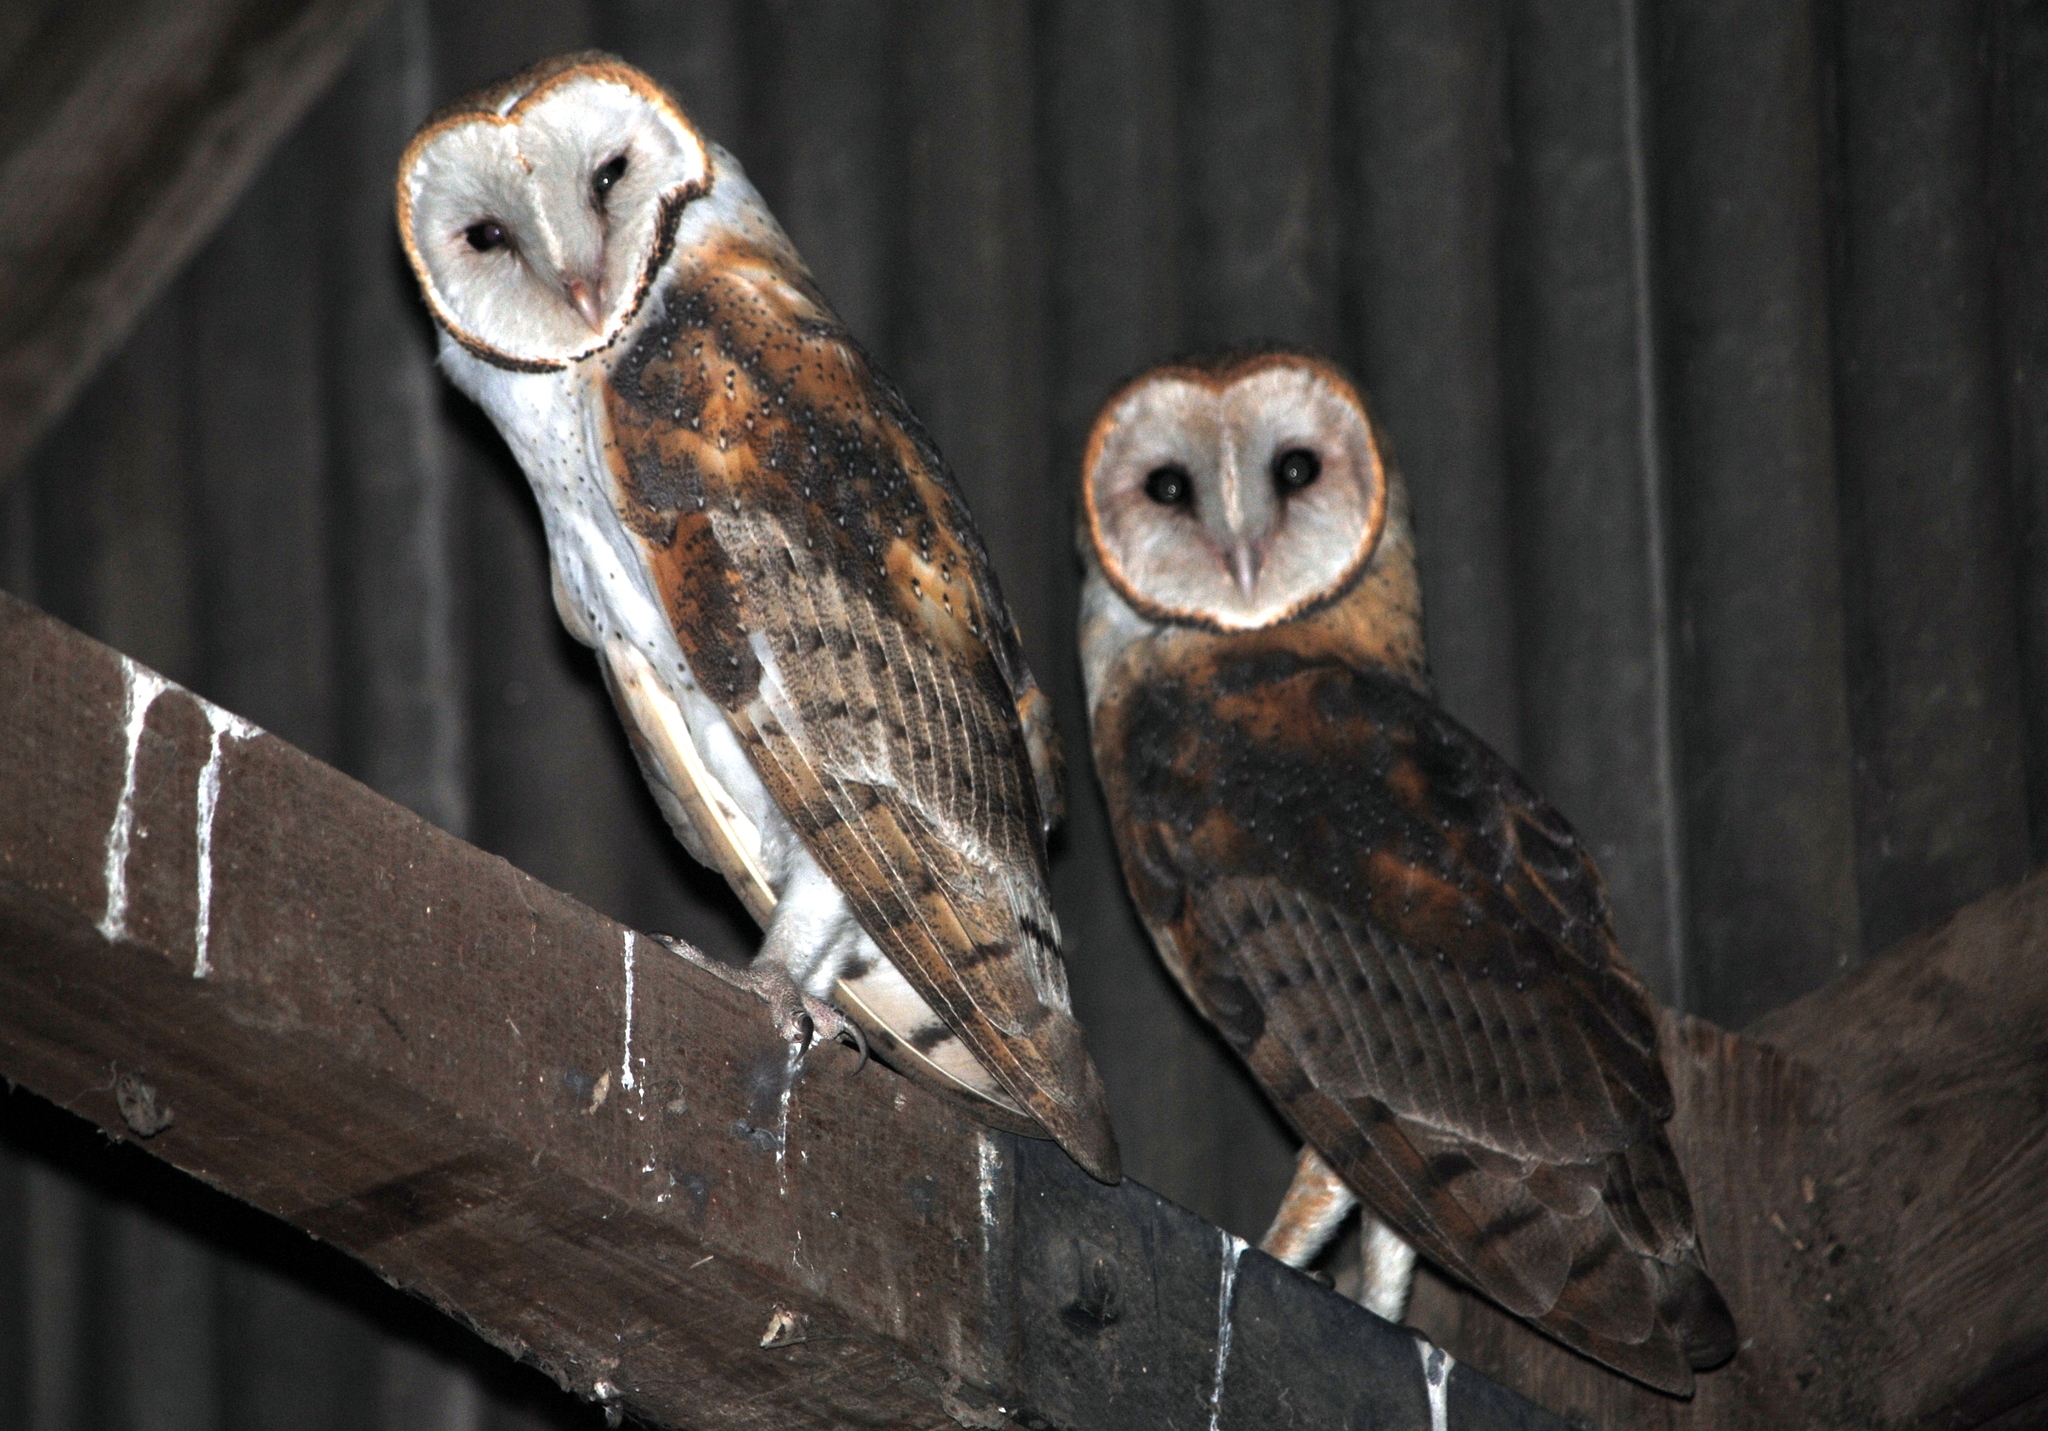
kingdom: Animalia
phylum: Chordata
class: Aves
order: Strigiformes
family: Tytonidae
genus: Tyto
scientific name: Tyto alba
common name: Barn owl
